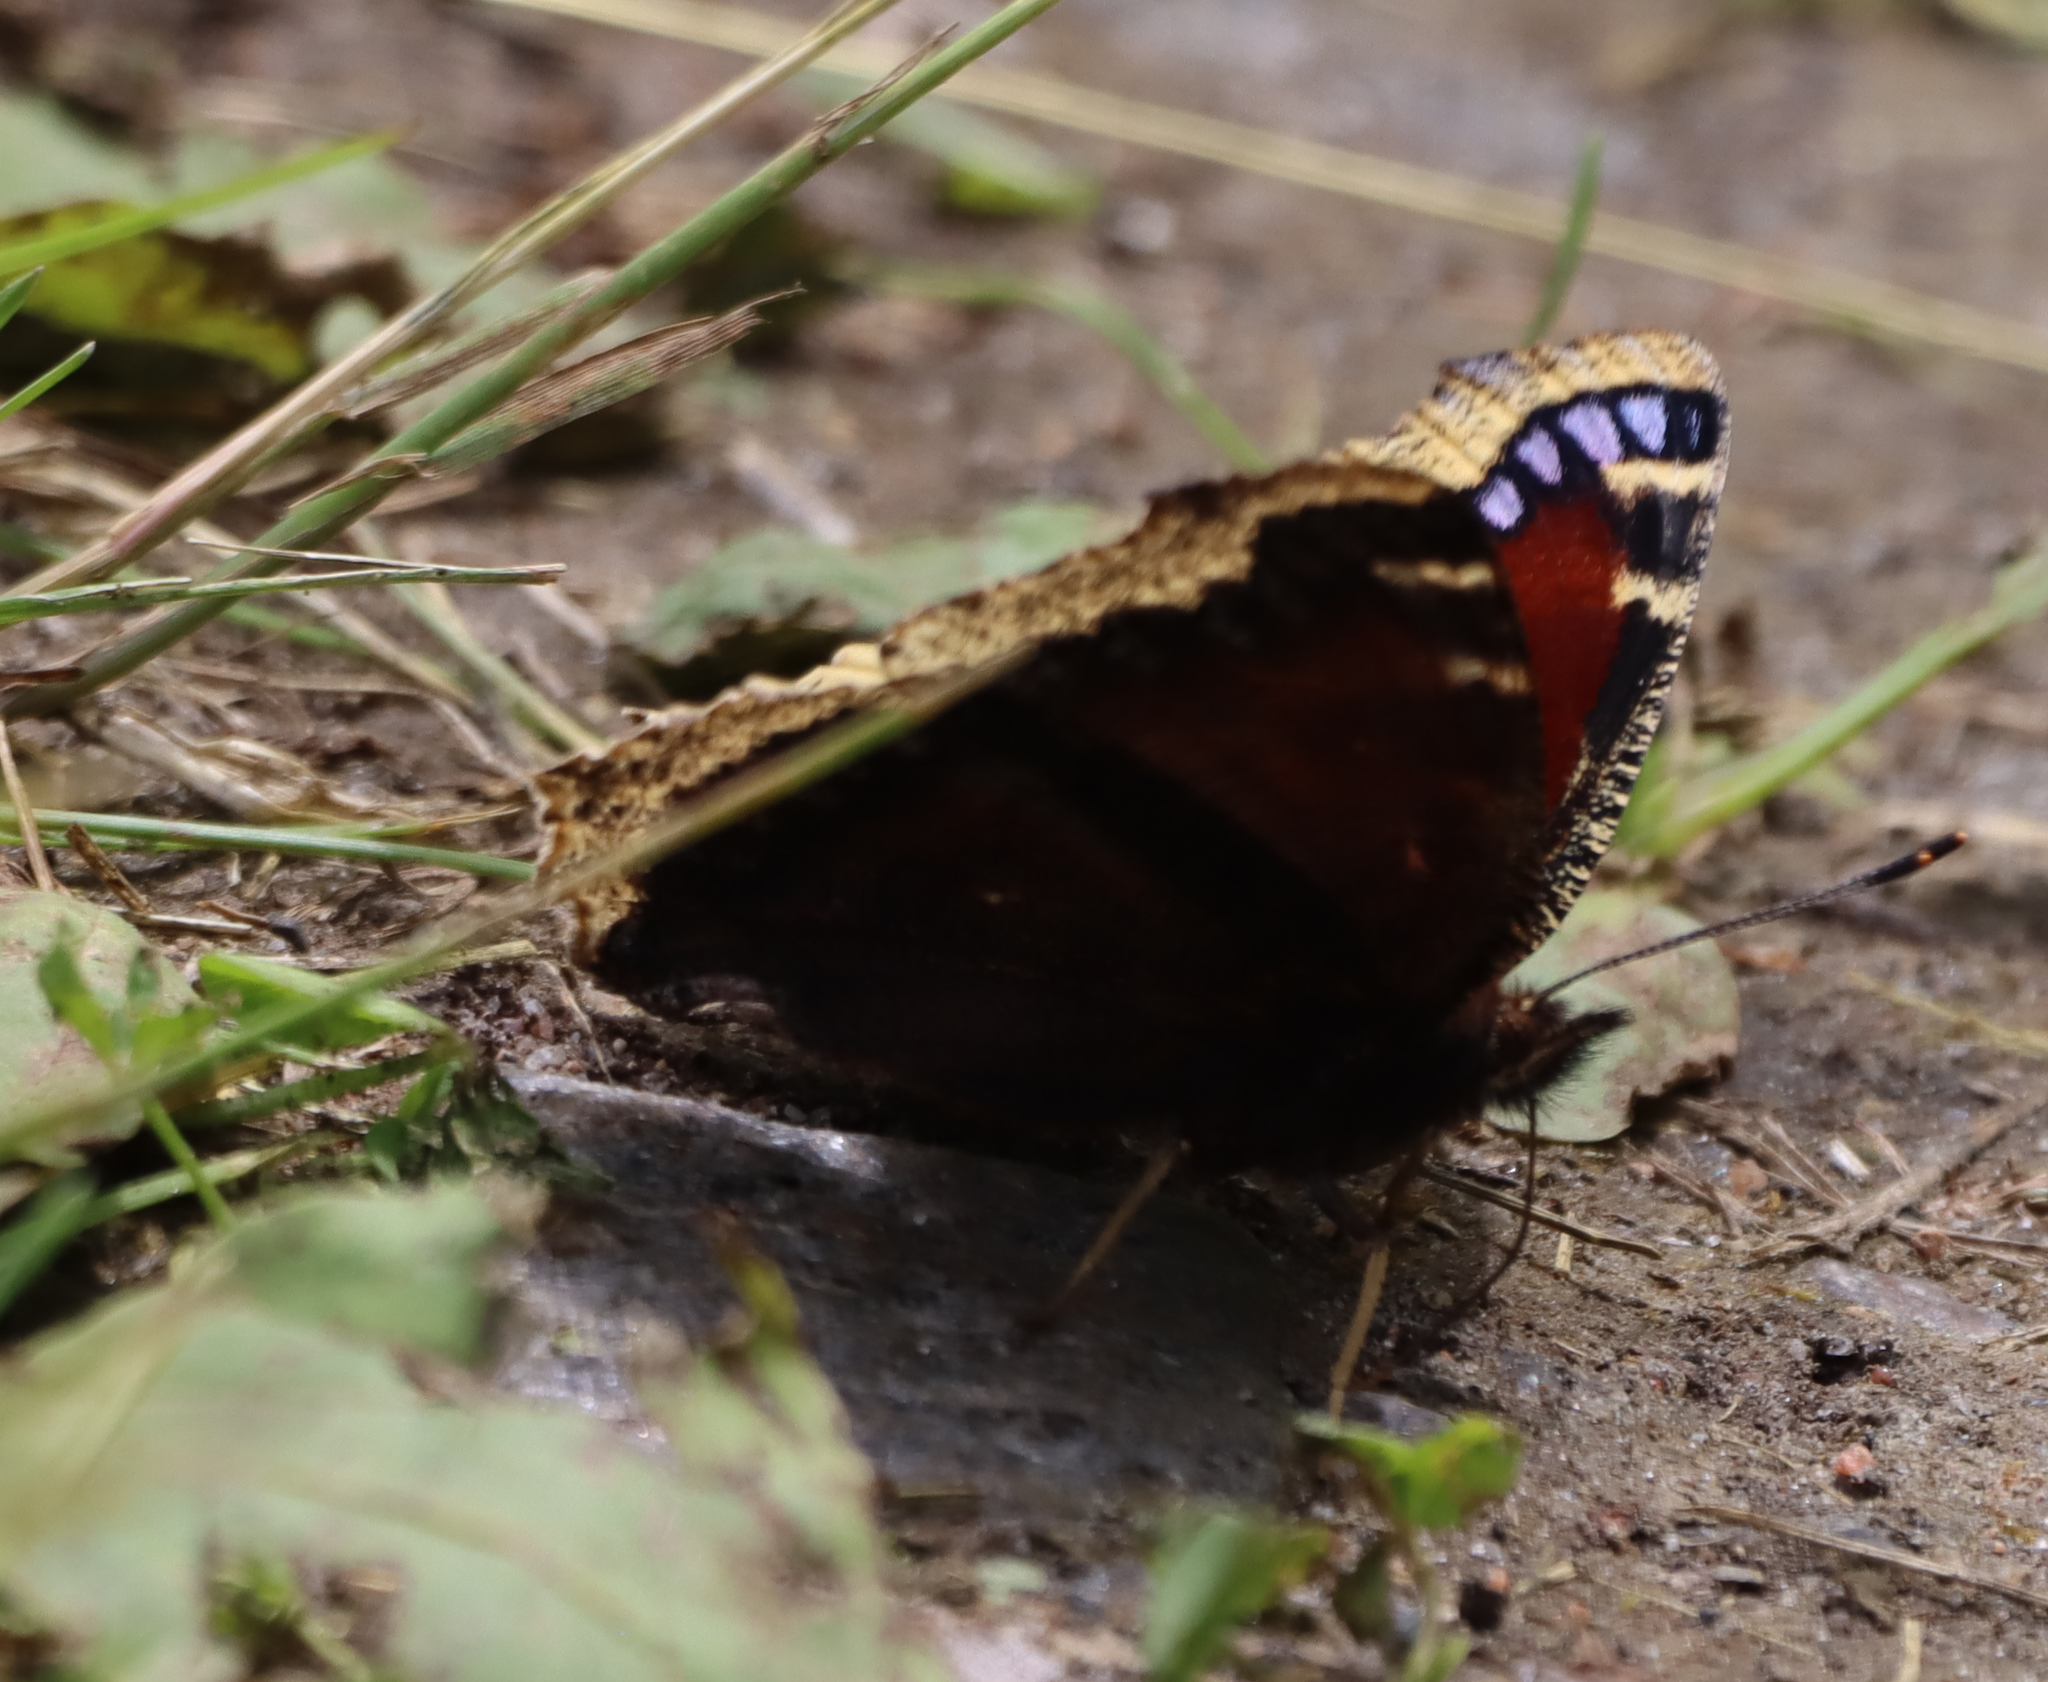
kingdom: Animalia
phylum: Arthropoda
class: Insecta
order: Lepidoptera
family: Nymphalidae
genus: Nymphalis
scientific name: Nymphalis antiopa
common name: Camberwell beauty
